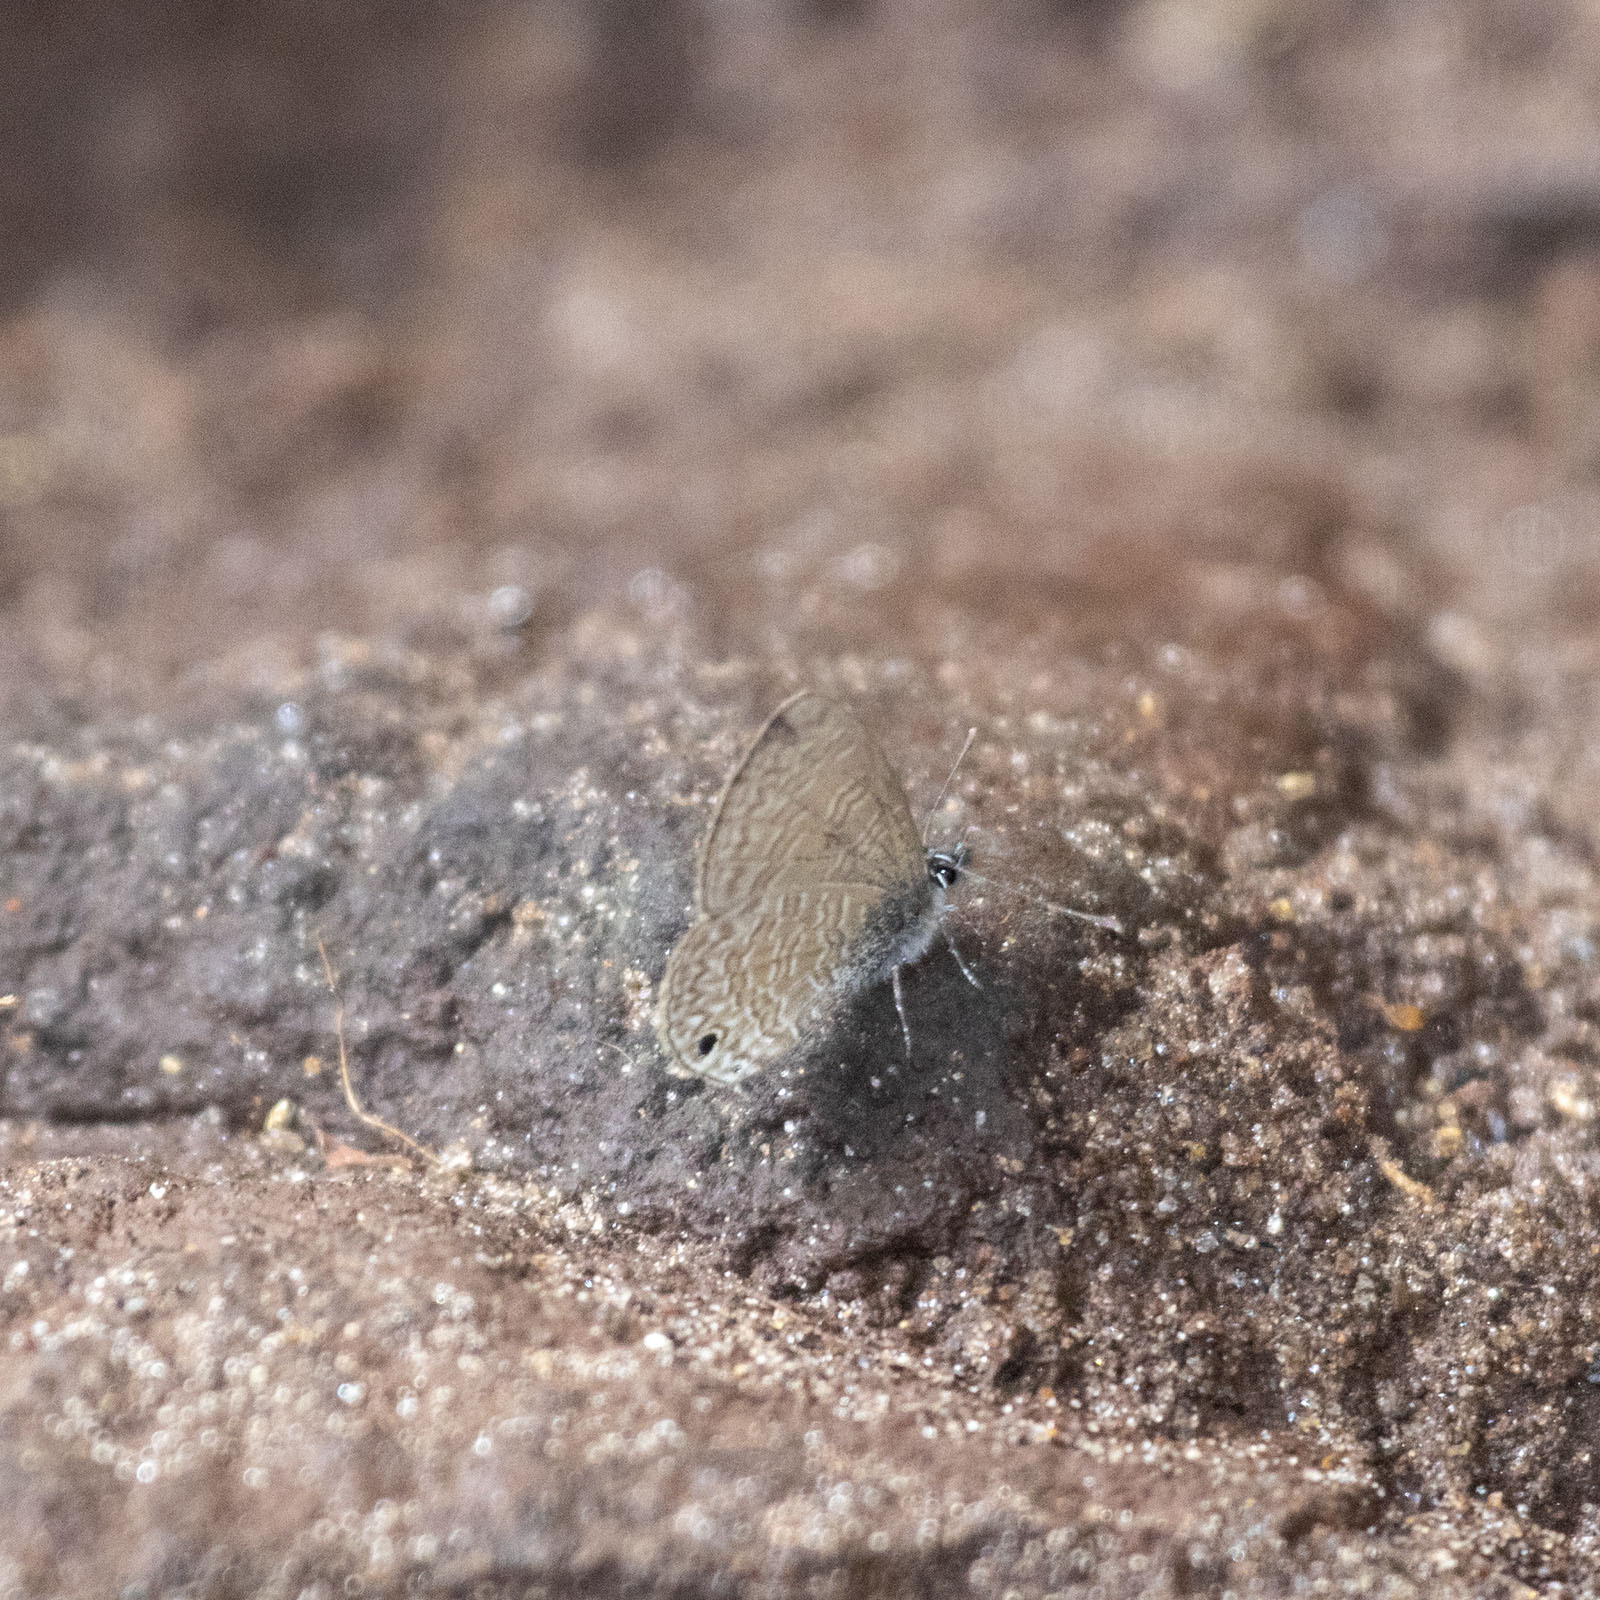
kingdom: Animalia
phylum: Arthropoda
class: Insecta
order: Lepidoptera
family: Lycaenidae
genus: Prosotas
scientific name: Prosotas dubiosa
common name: Tailless lineblue
